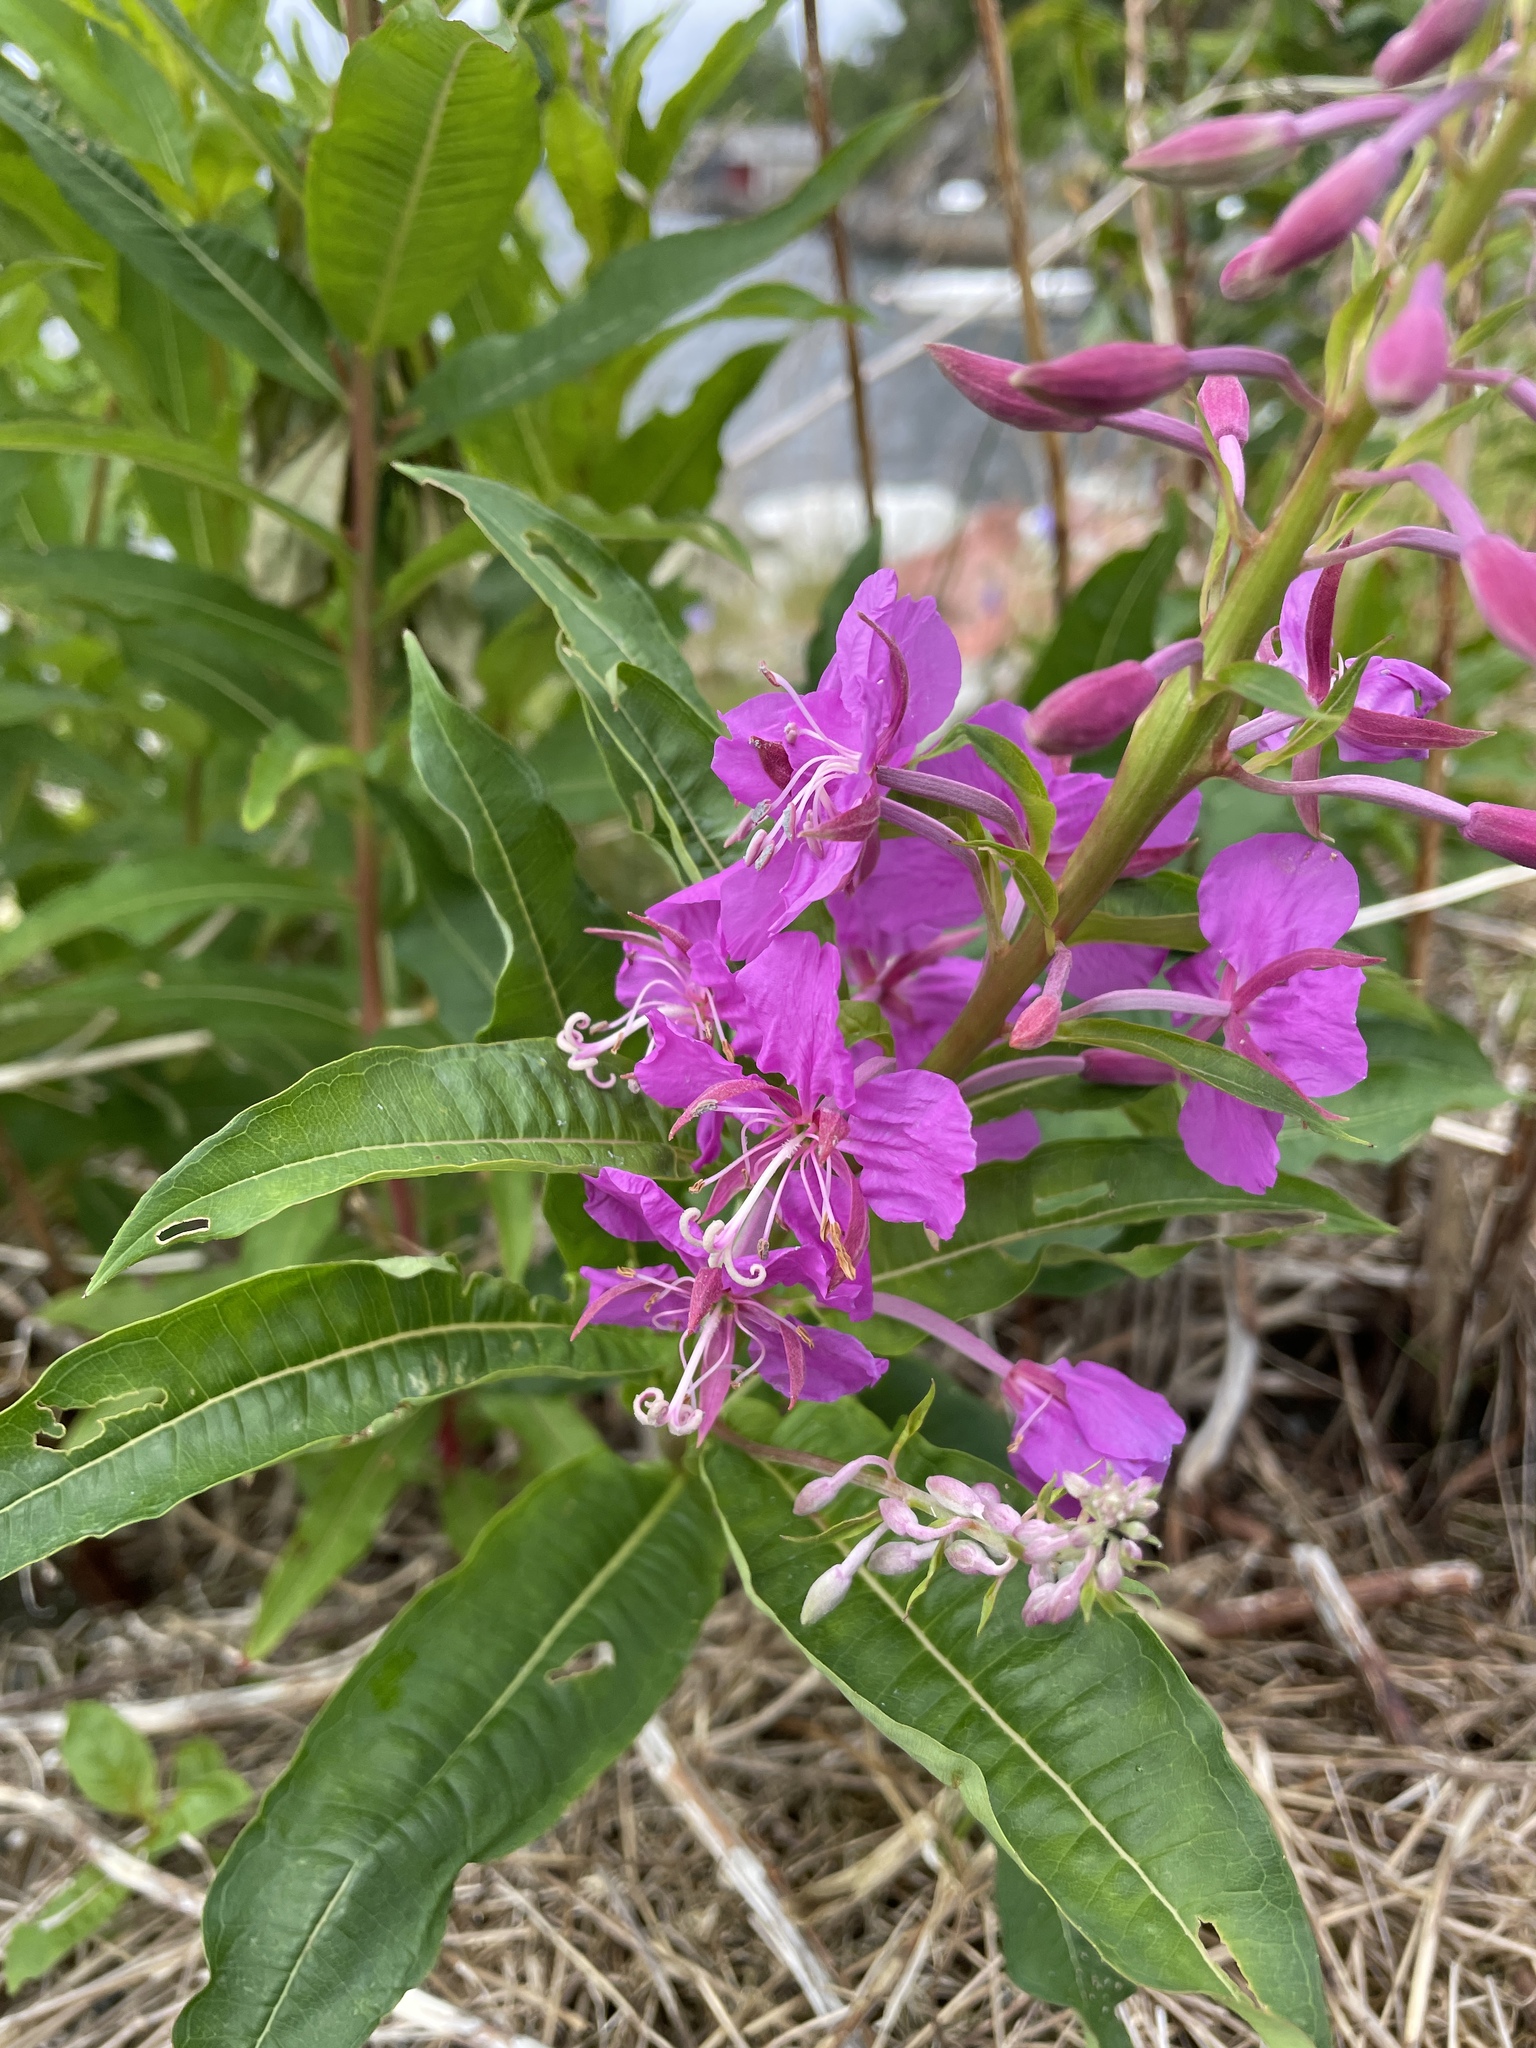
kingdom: Plantae
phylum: Tracheophyta
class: Magnoliopsida
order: Myrtales
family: Onagraceae
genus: Chamaenerion
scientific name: Chamaenerion angustifolium
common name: Fireweed
